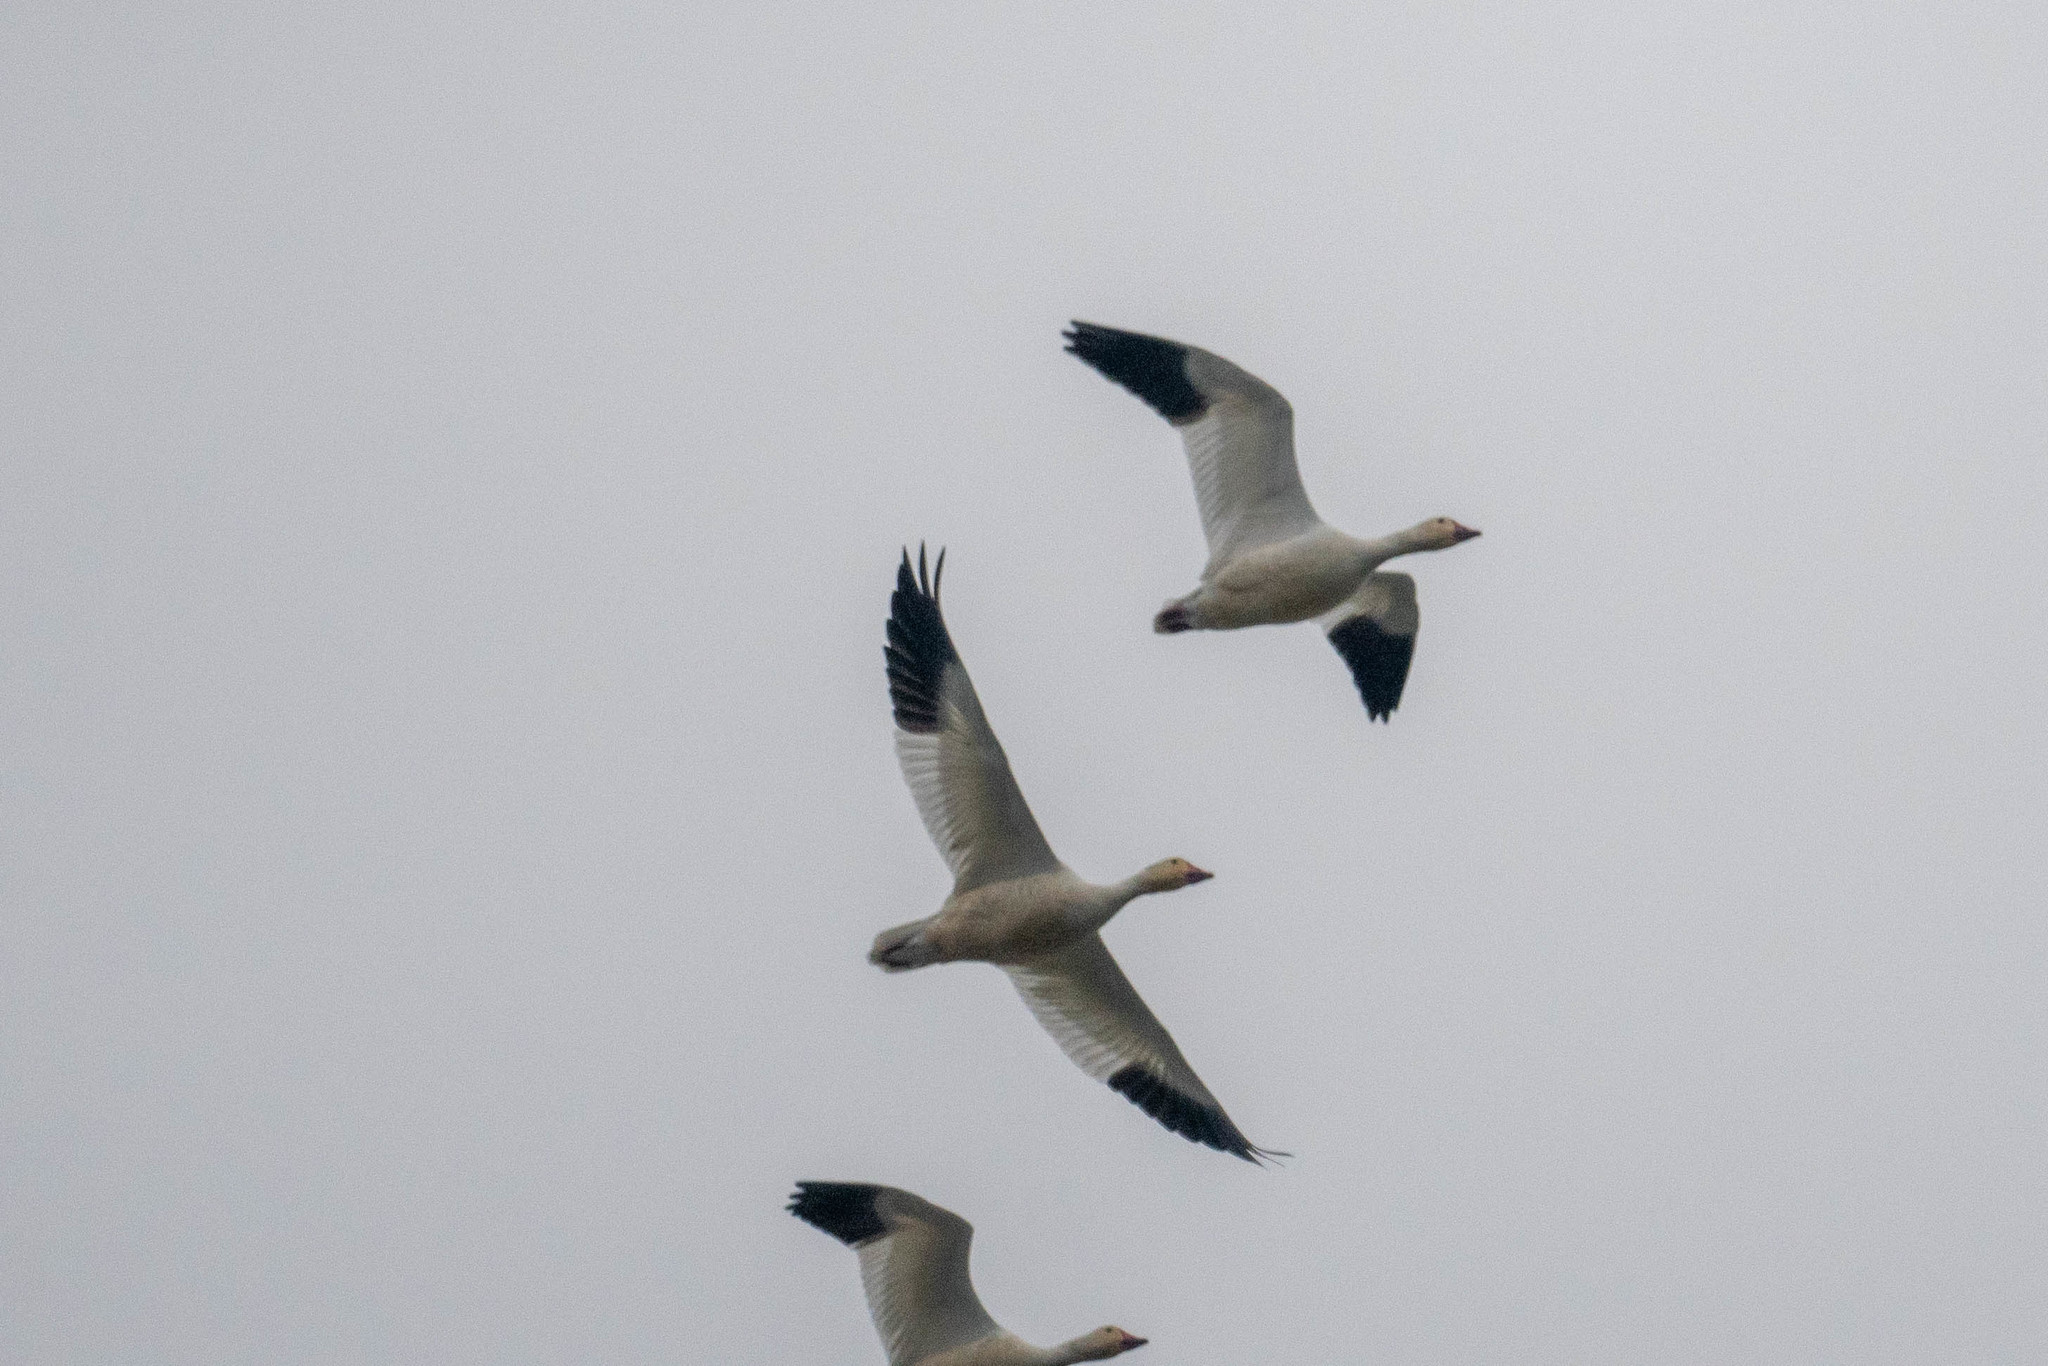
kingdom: Animalia
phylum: Chordata
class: Aves
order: Anseriformes
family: Anatidae
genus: Anser
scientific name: Anser caerulescens
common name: Snow goose
